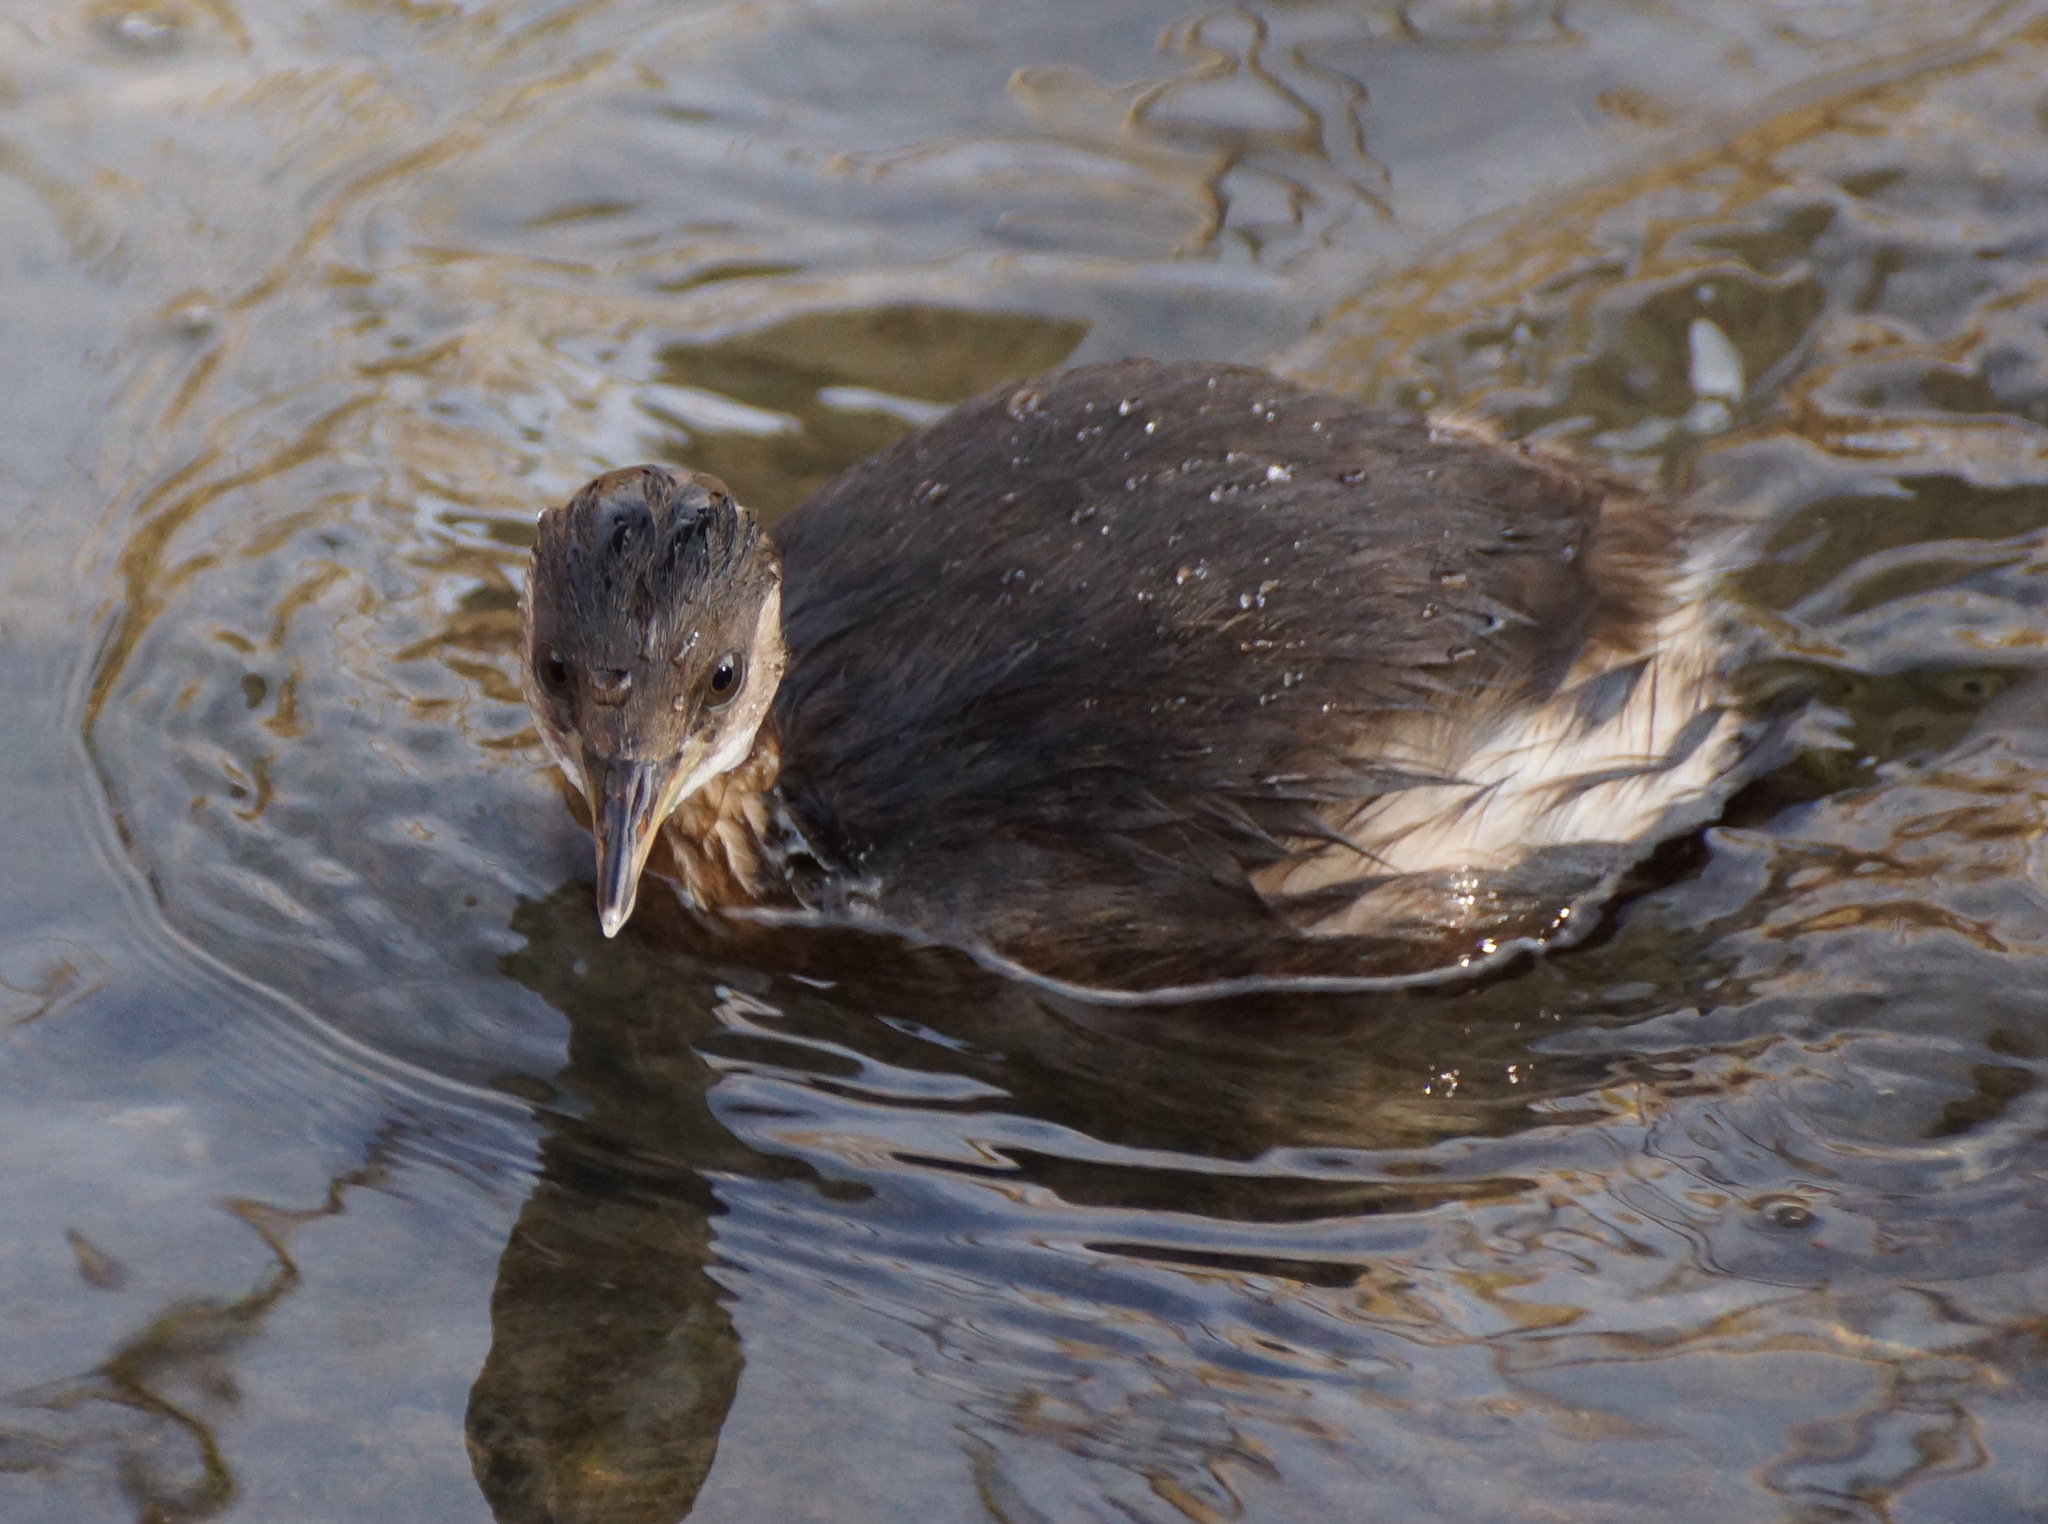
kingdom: Animalia
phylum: Chordata
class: Aves
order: Podicipediformes
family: Podicipedidae
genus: Tachybaptus
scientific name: Tachybaptus ruficollis
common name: Little grebe
